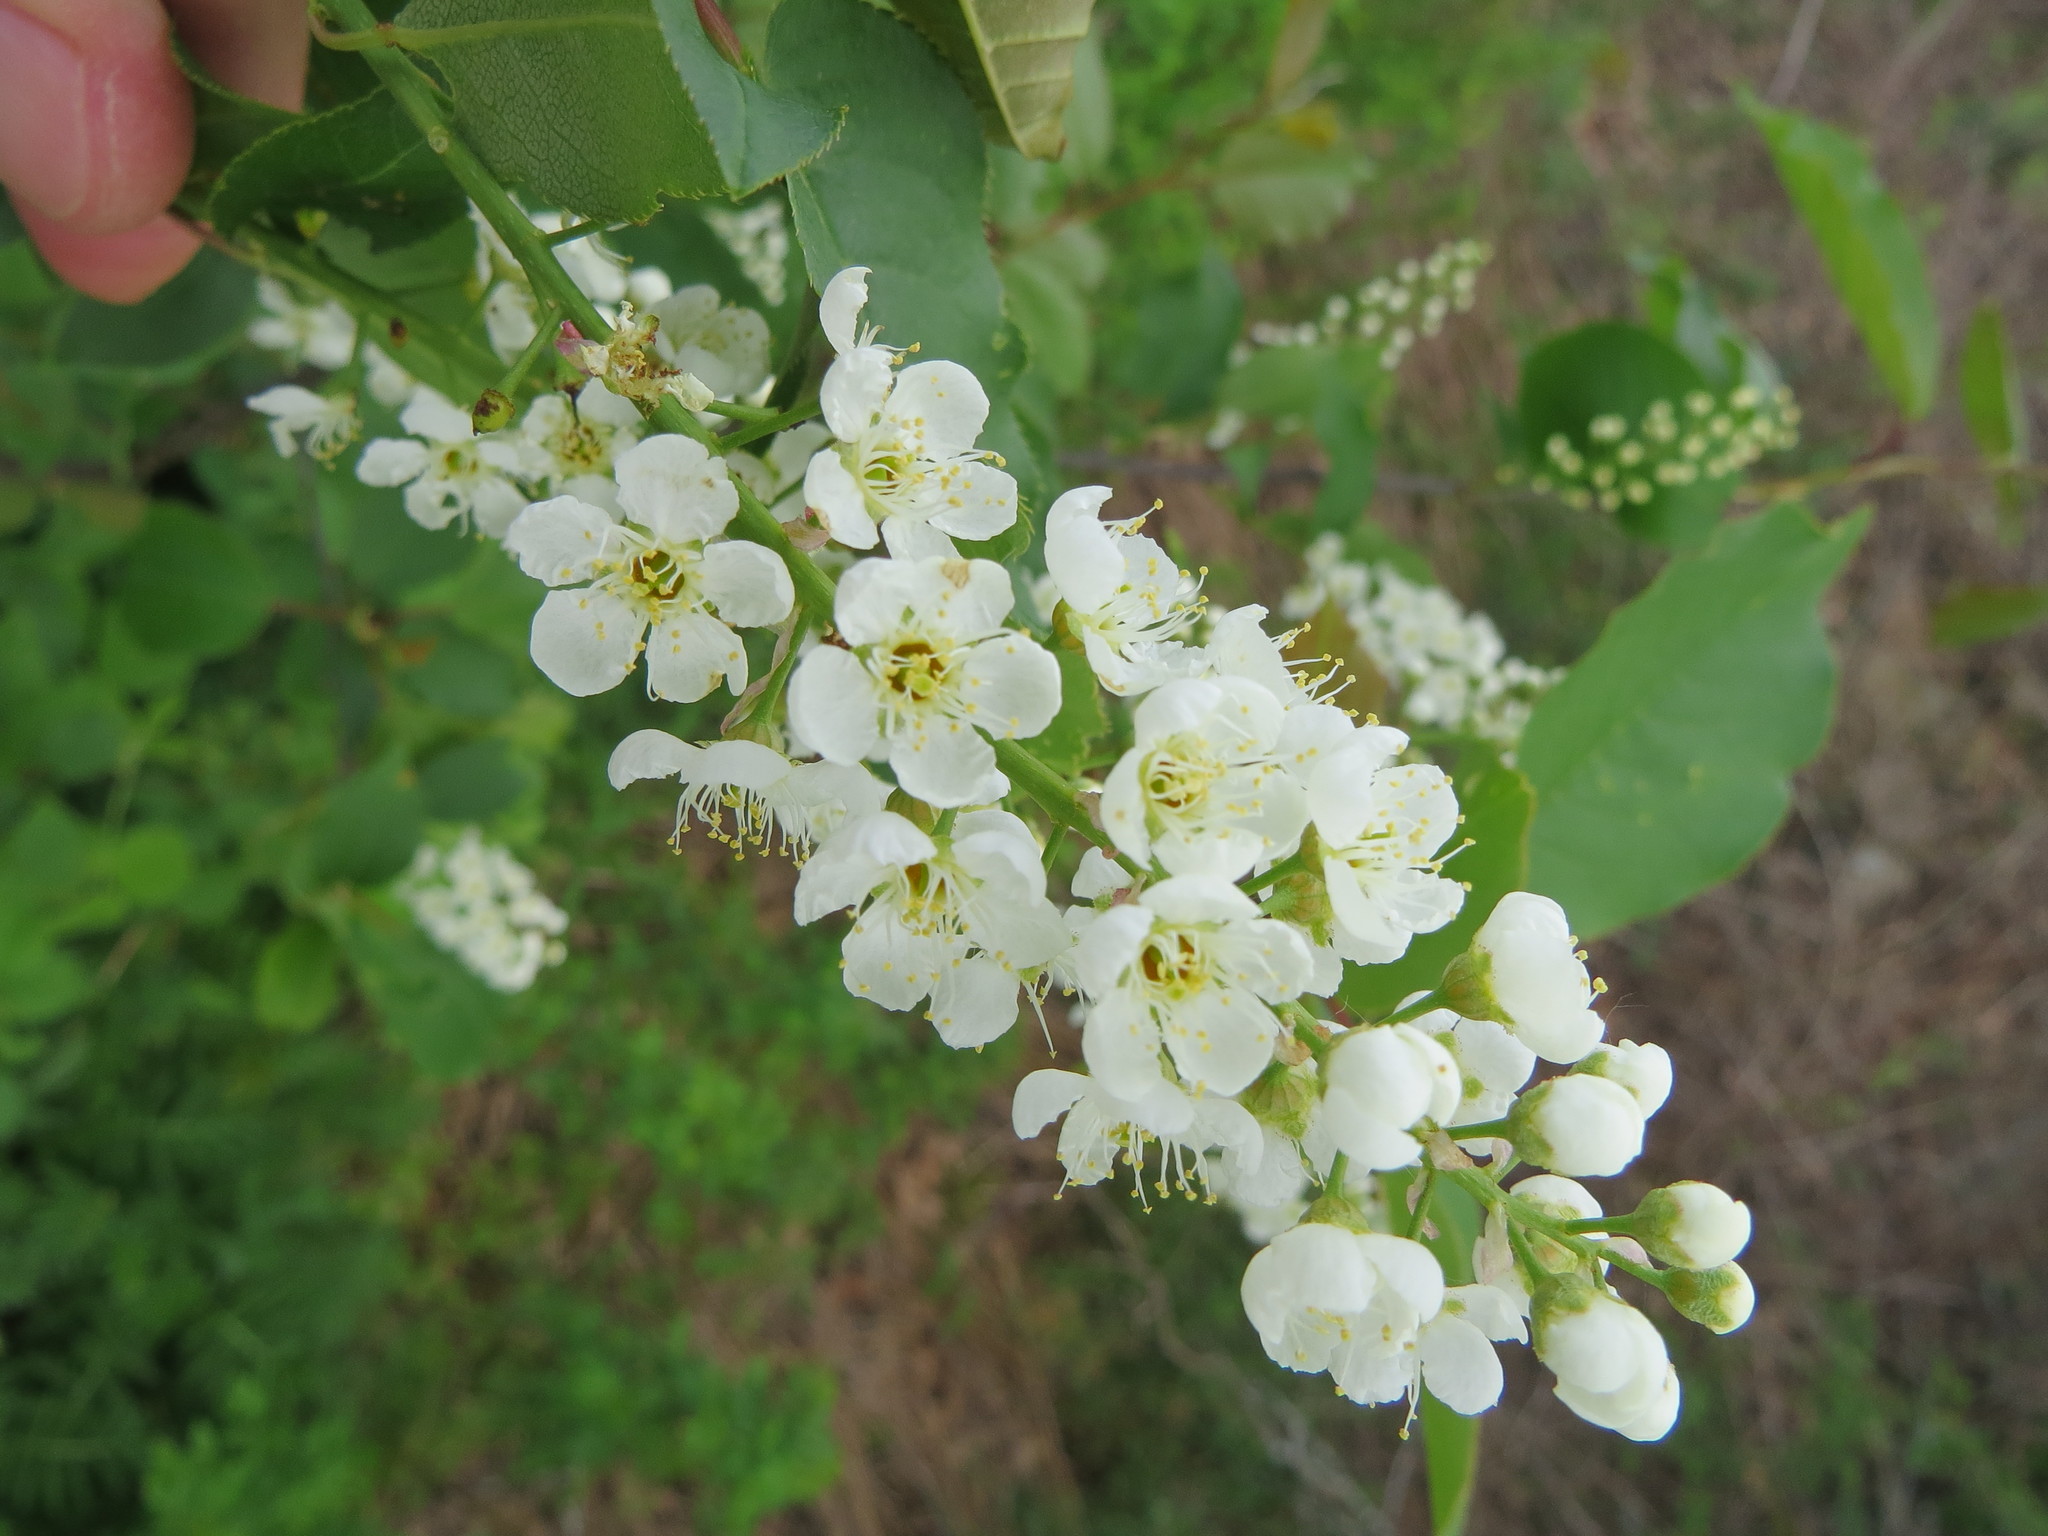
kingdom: Plantae
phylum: Tracheophyta
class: Magnoliopsida
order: Rosales
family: Rosaceae
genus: Prunus
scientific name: Prunus virginiana
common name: Chokecherry
